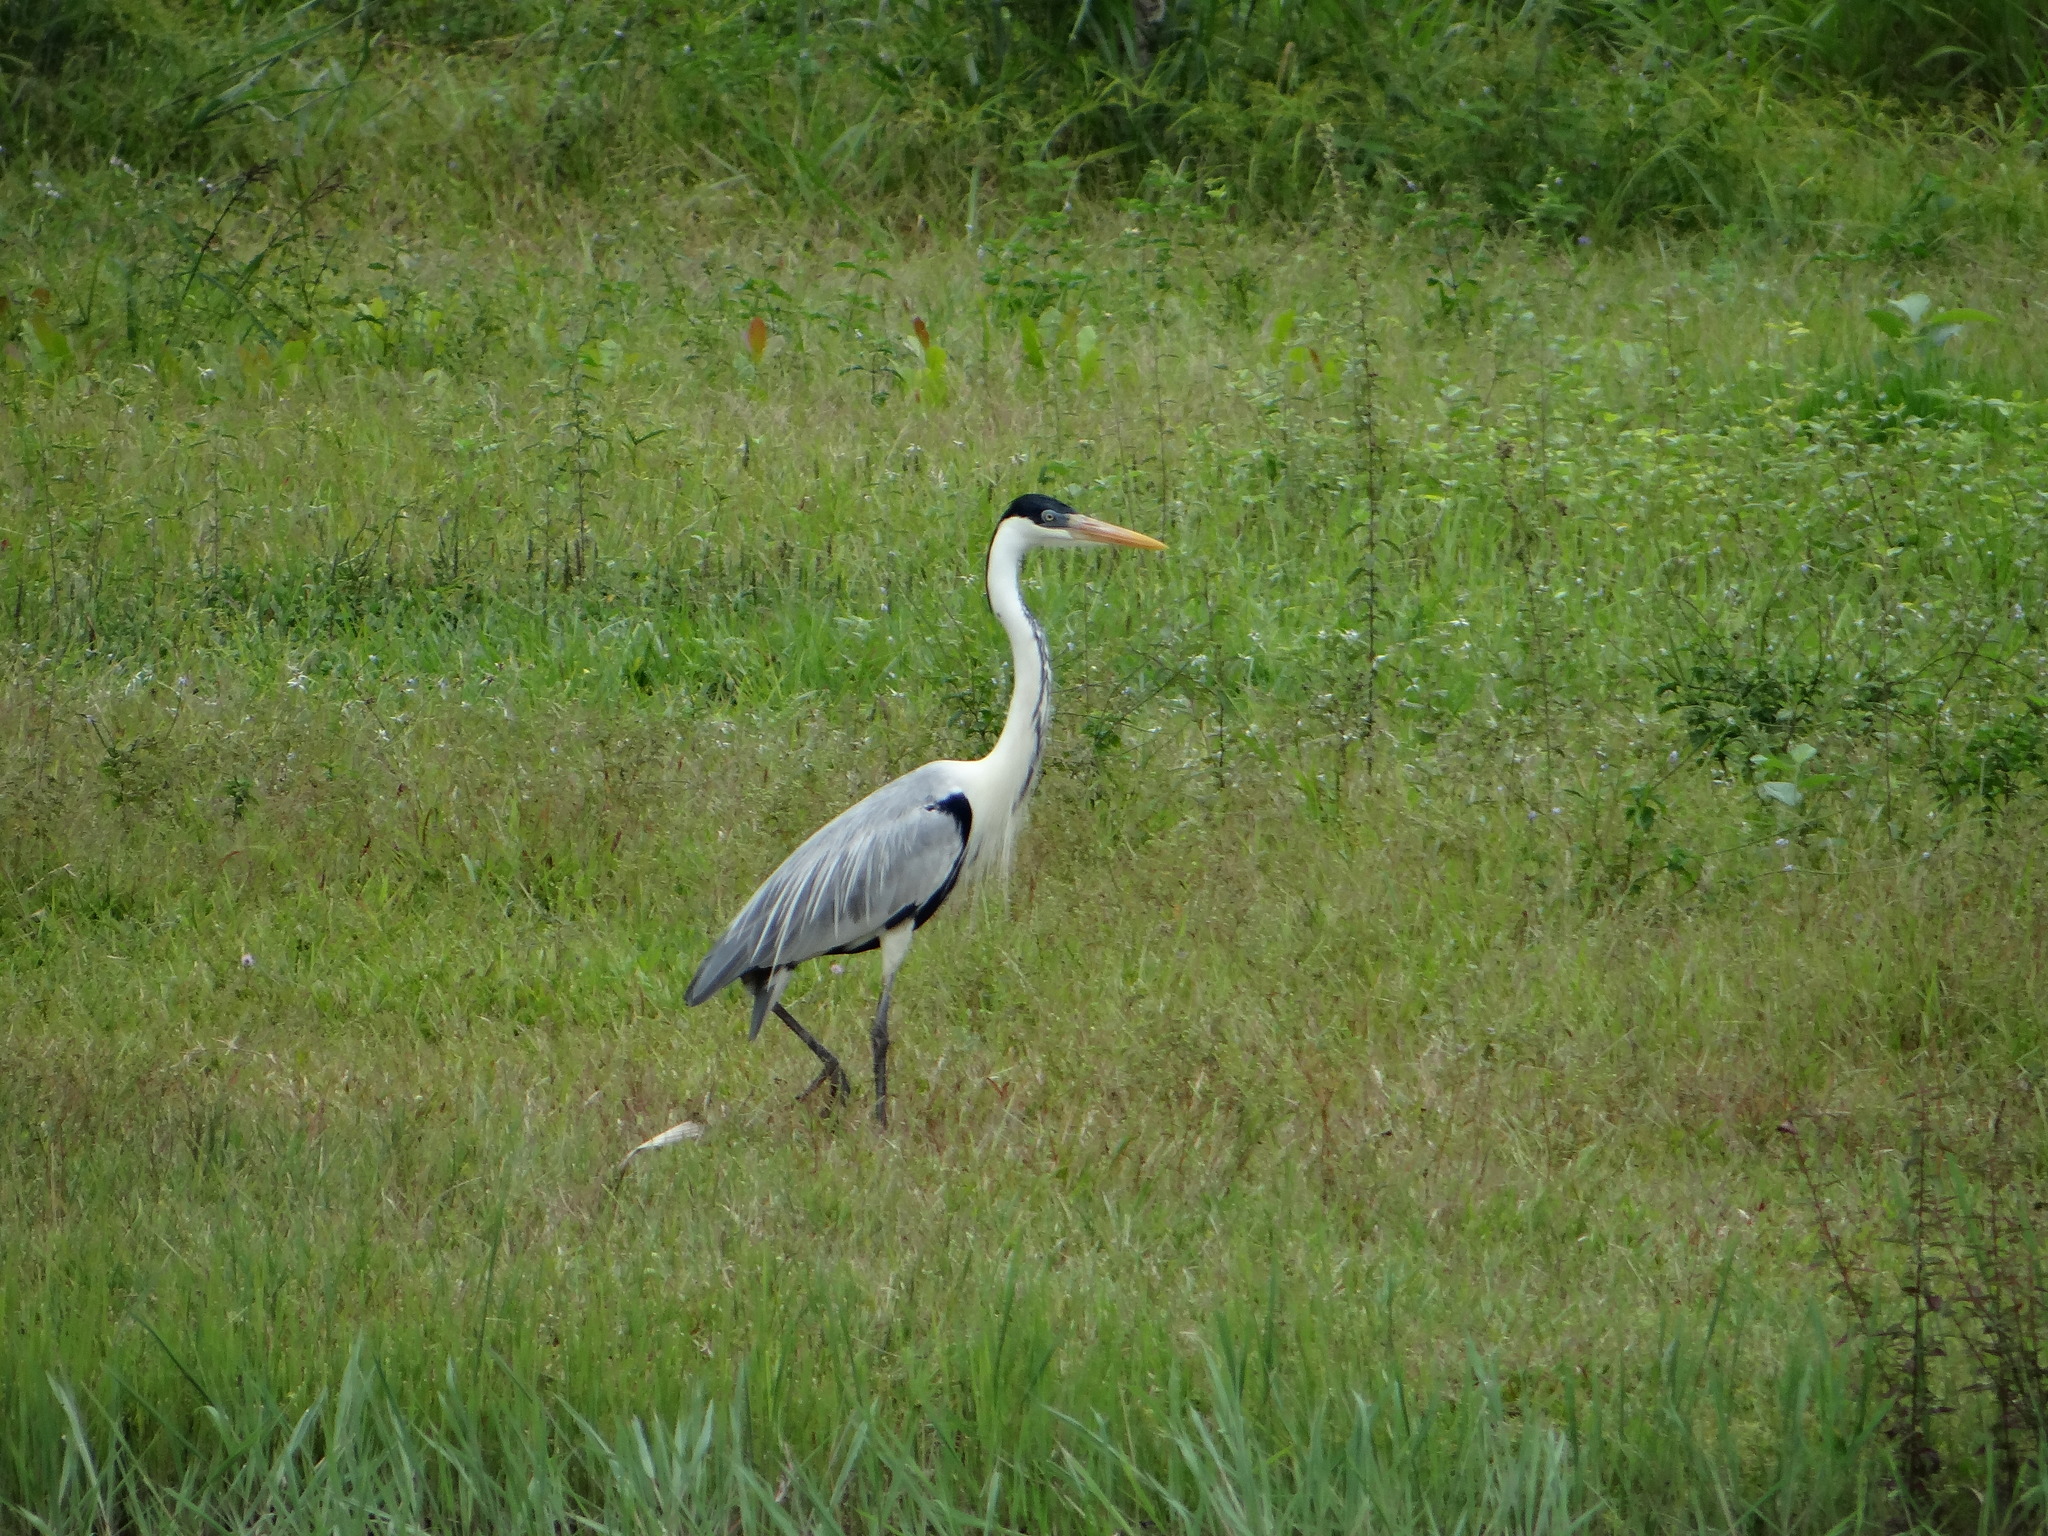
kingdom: Animalia
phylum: Chordata
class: Aves
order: Pelecaniformes
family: Ardeidae
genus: Ardea
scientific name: Ardea cocoi
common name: Cocoi heron
